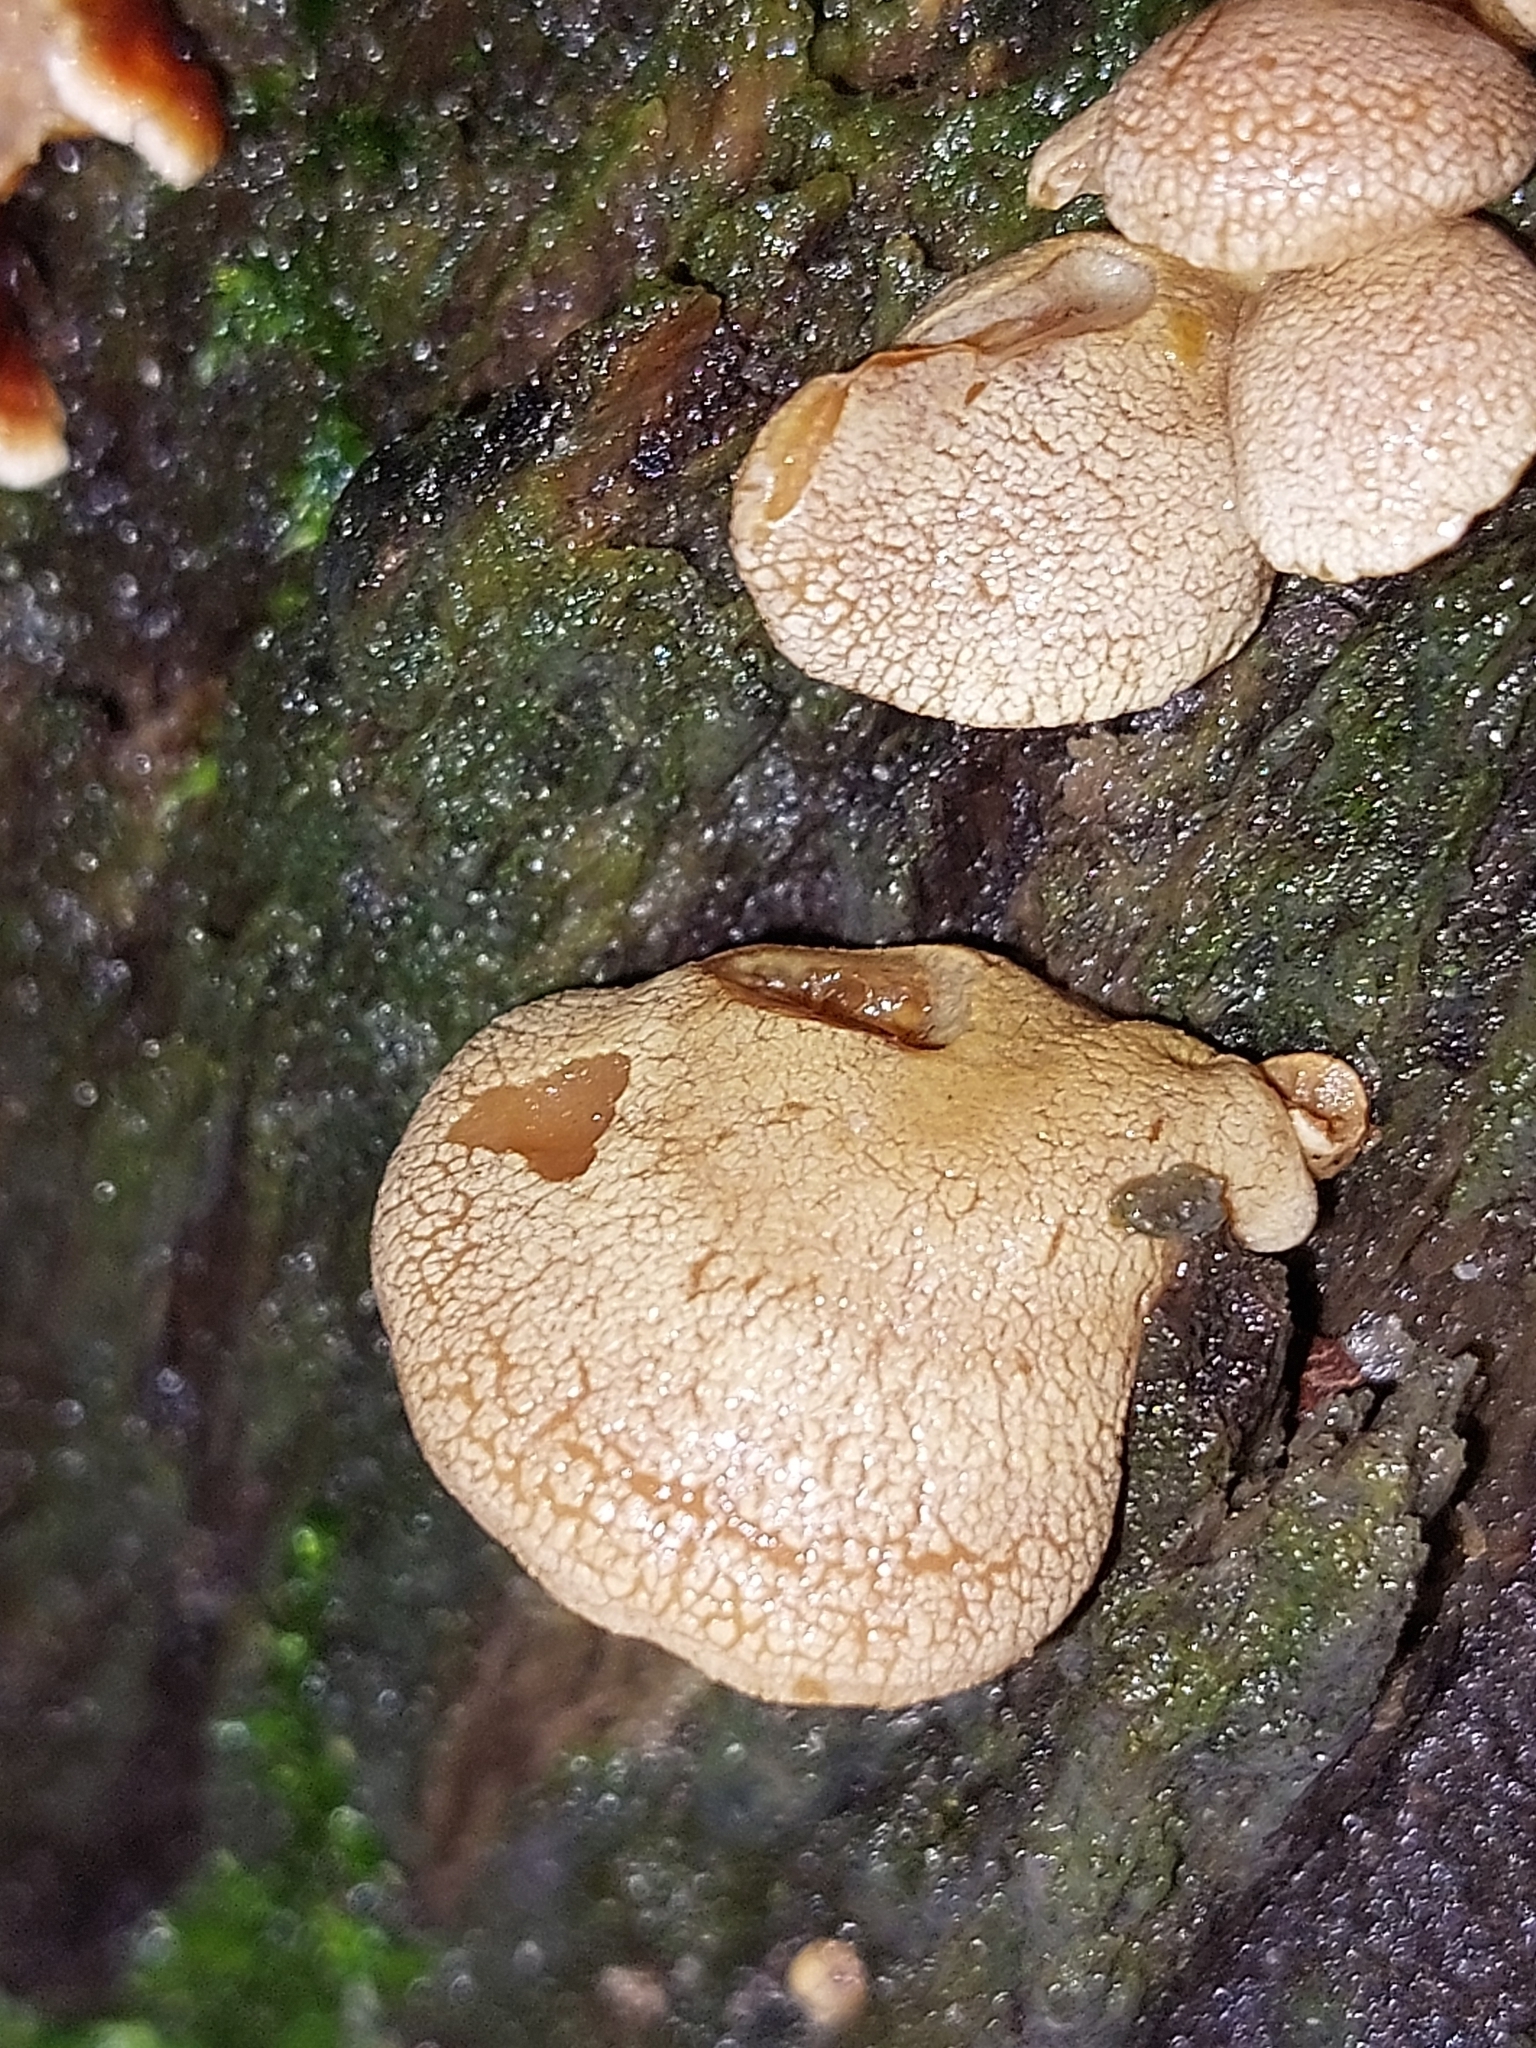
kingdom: Fungi
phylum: Basidiomycota
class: Agaricomycetes
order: Agaricales
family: Mycenaceae
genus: Panellus
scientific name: Panellus stipticus
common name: Bitter oysterling
